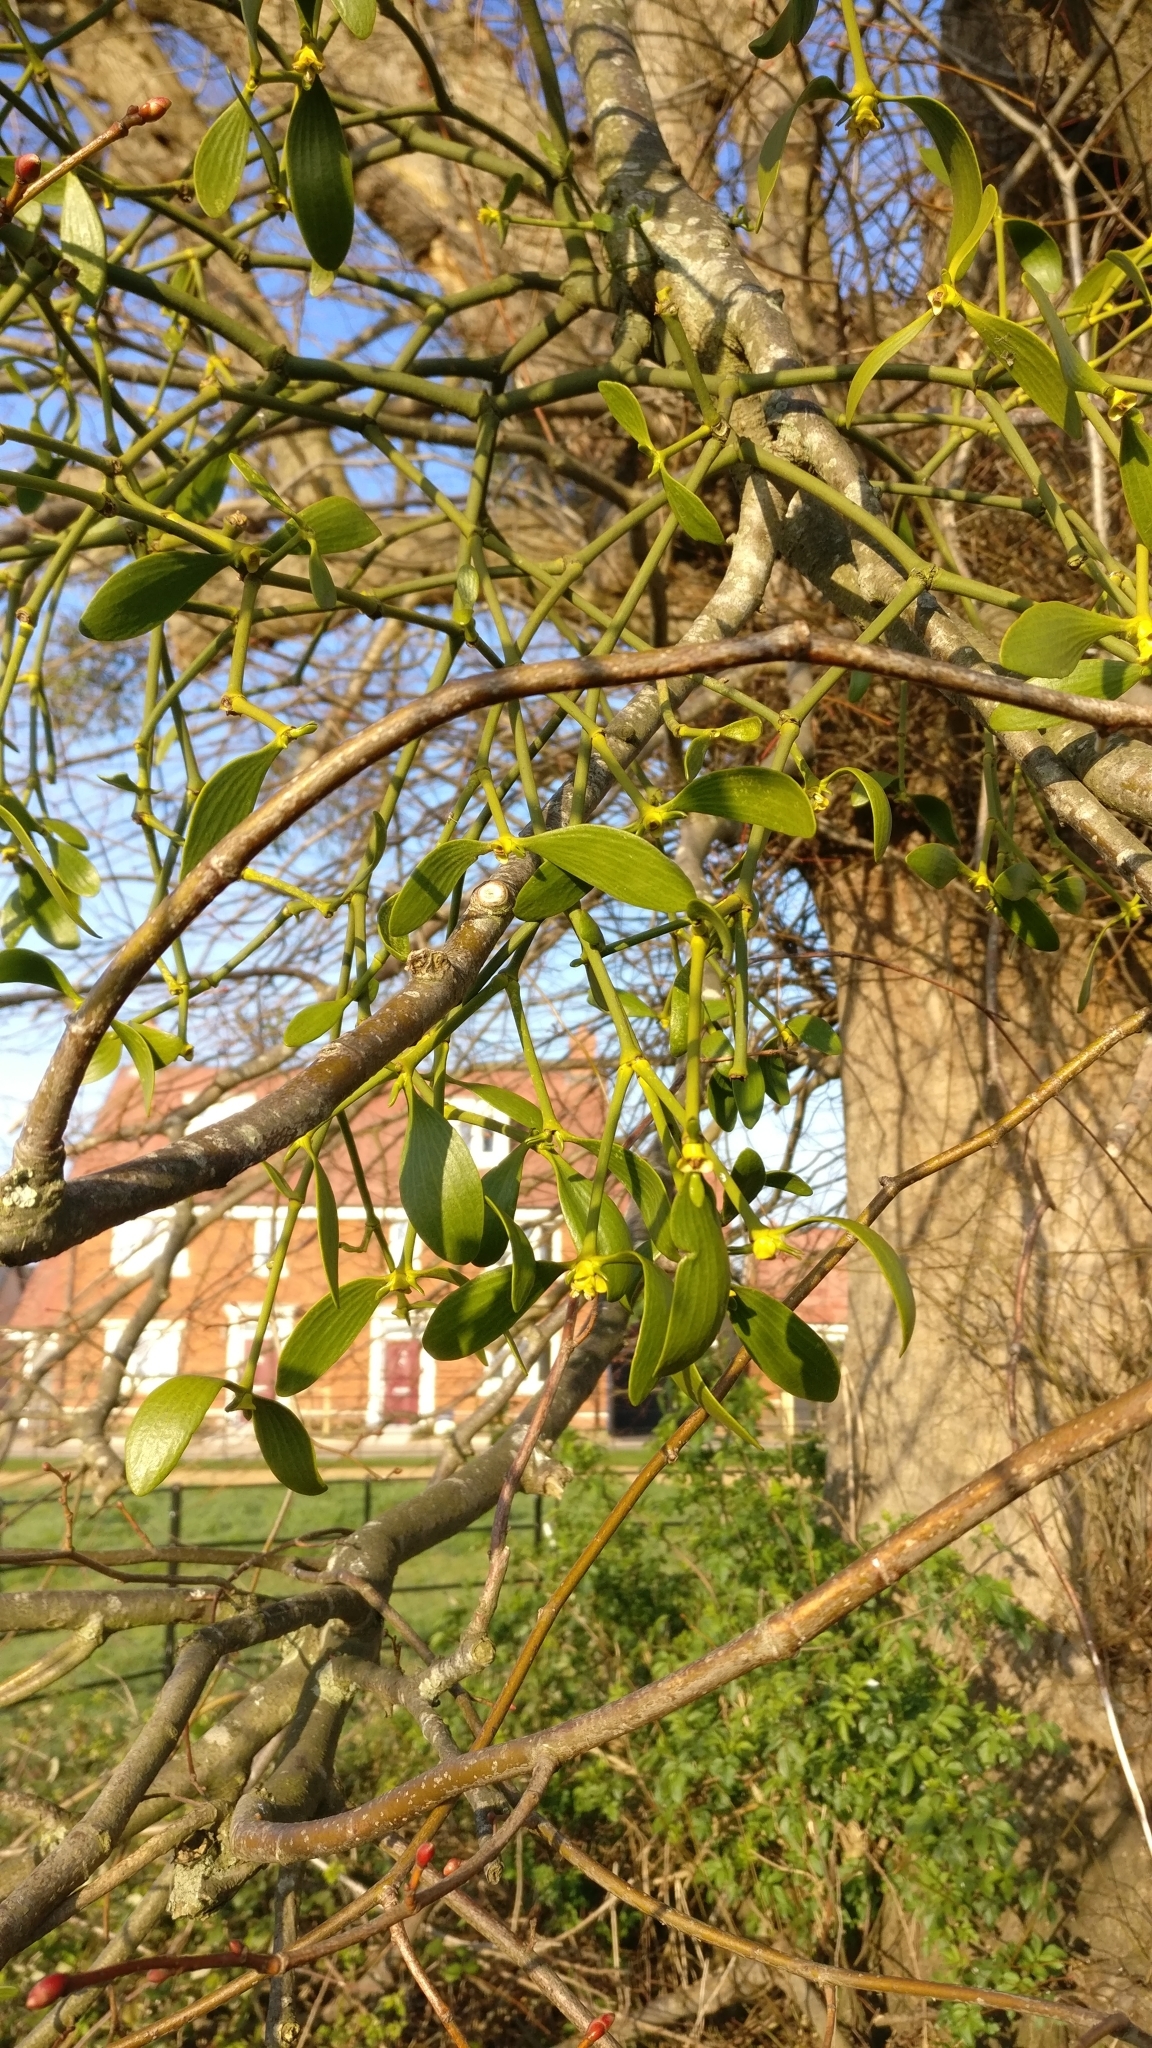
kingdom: Plantae
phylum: Tracheophyta
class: Magnoliopsida
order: Santalales
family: Viscaceae
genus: Viscum
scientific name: Viscum album
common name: Mistletoe
